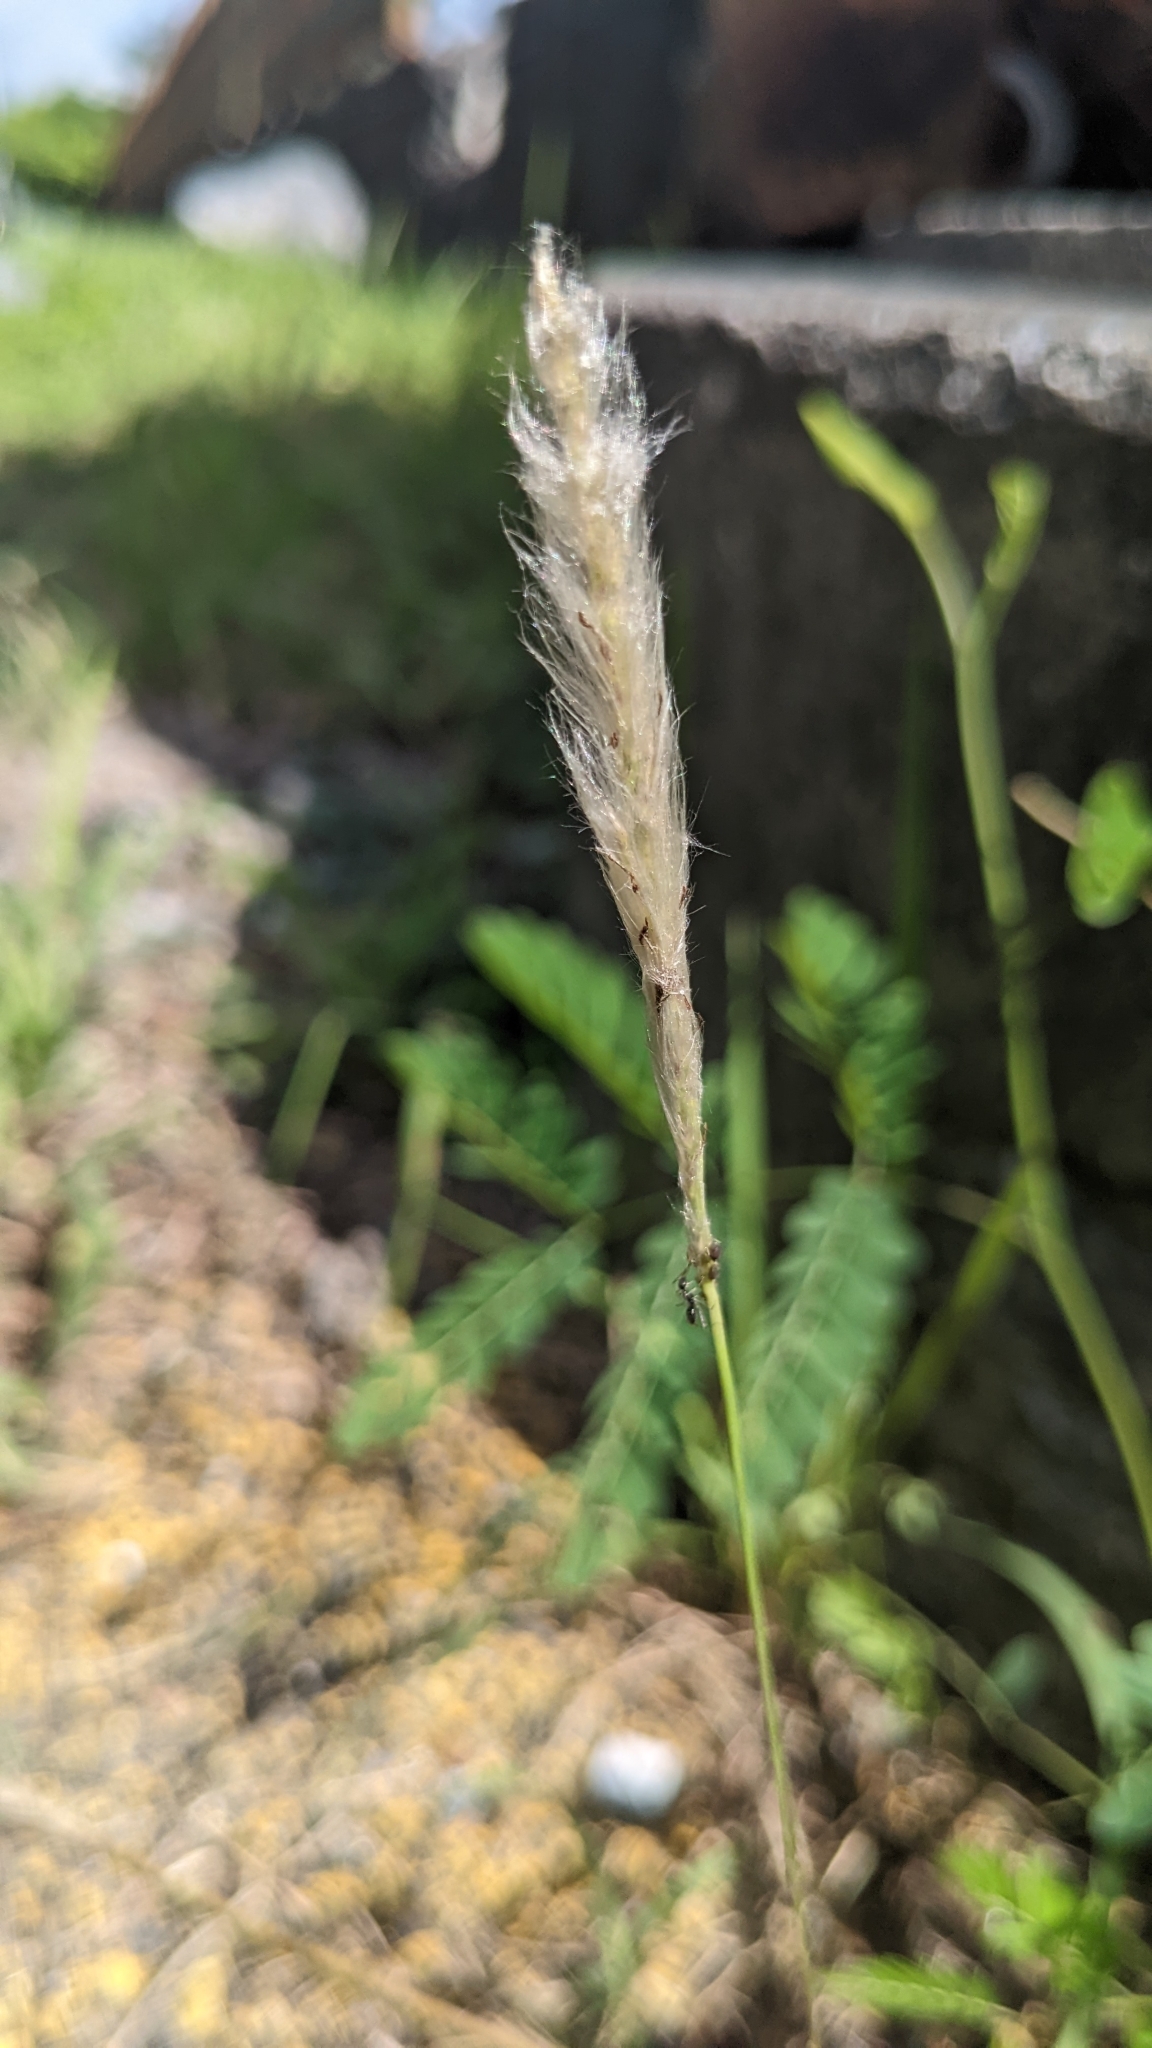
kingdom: Plantae
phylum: Tracheophyta
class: Liliopsida
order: Poales
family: Poaceae
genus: Imperata
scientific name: Imperata cylindrica
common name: Cogongrass
